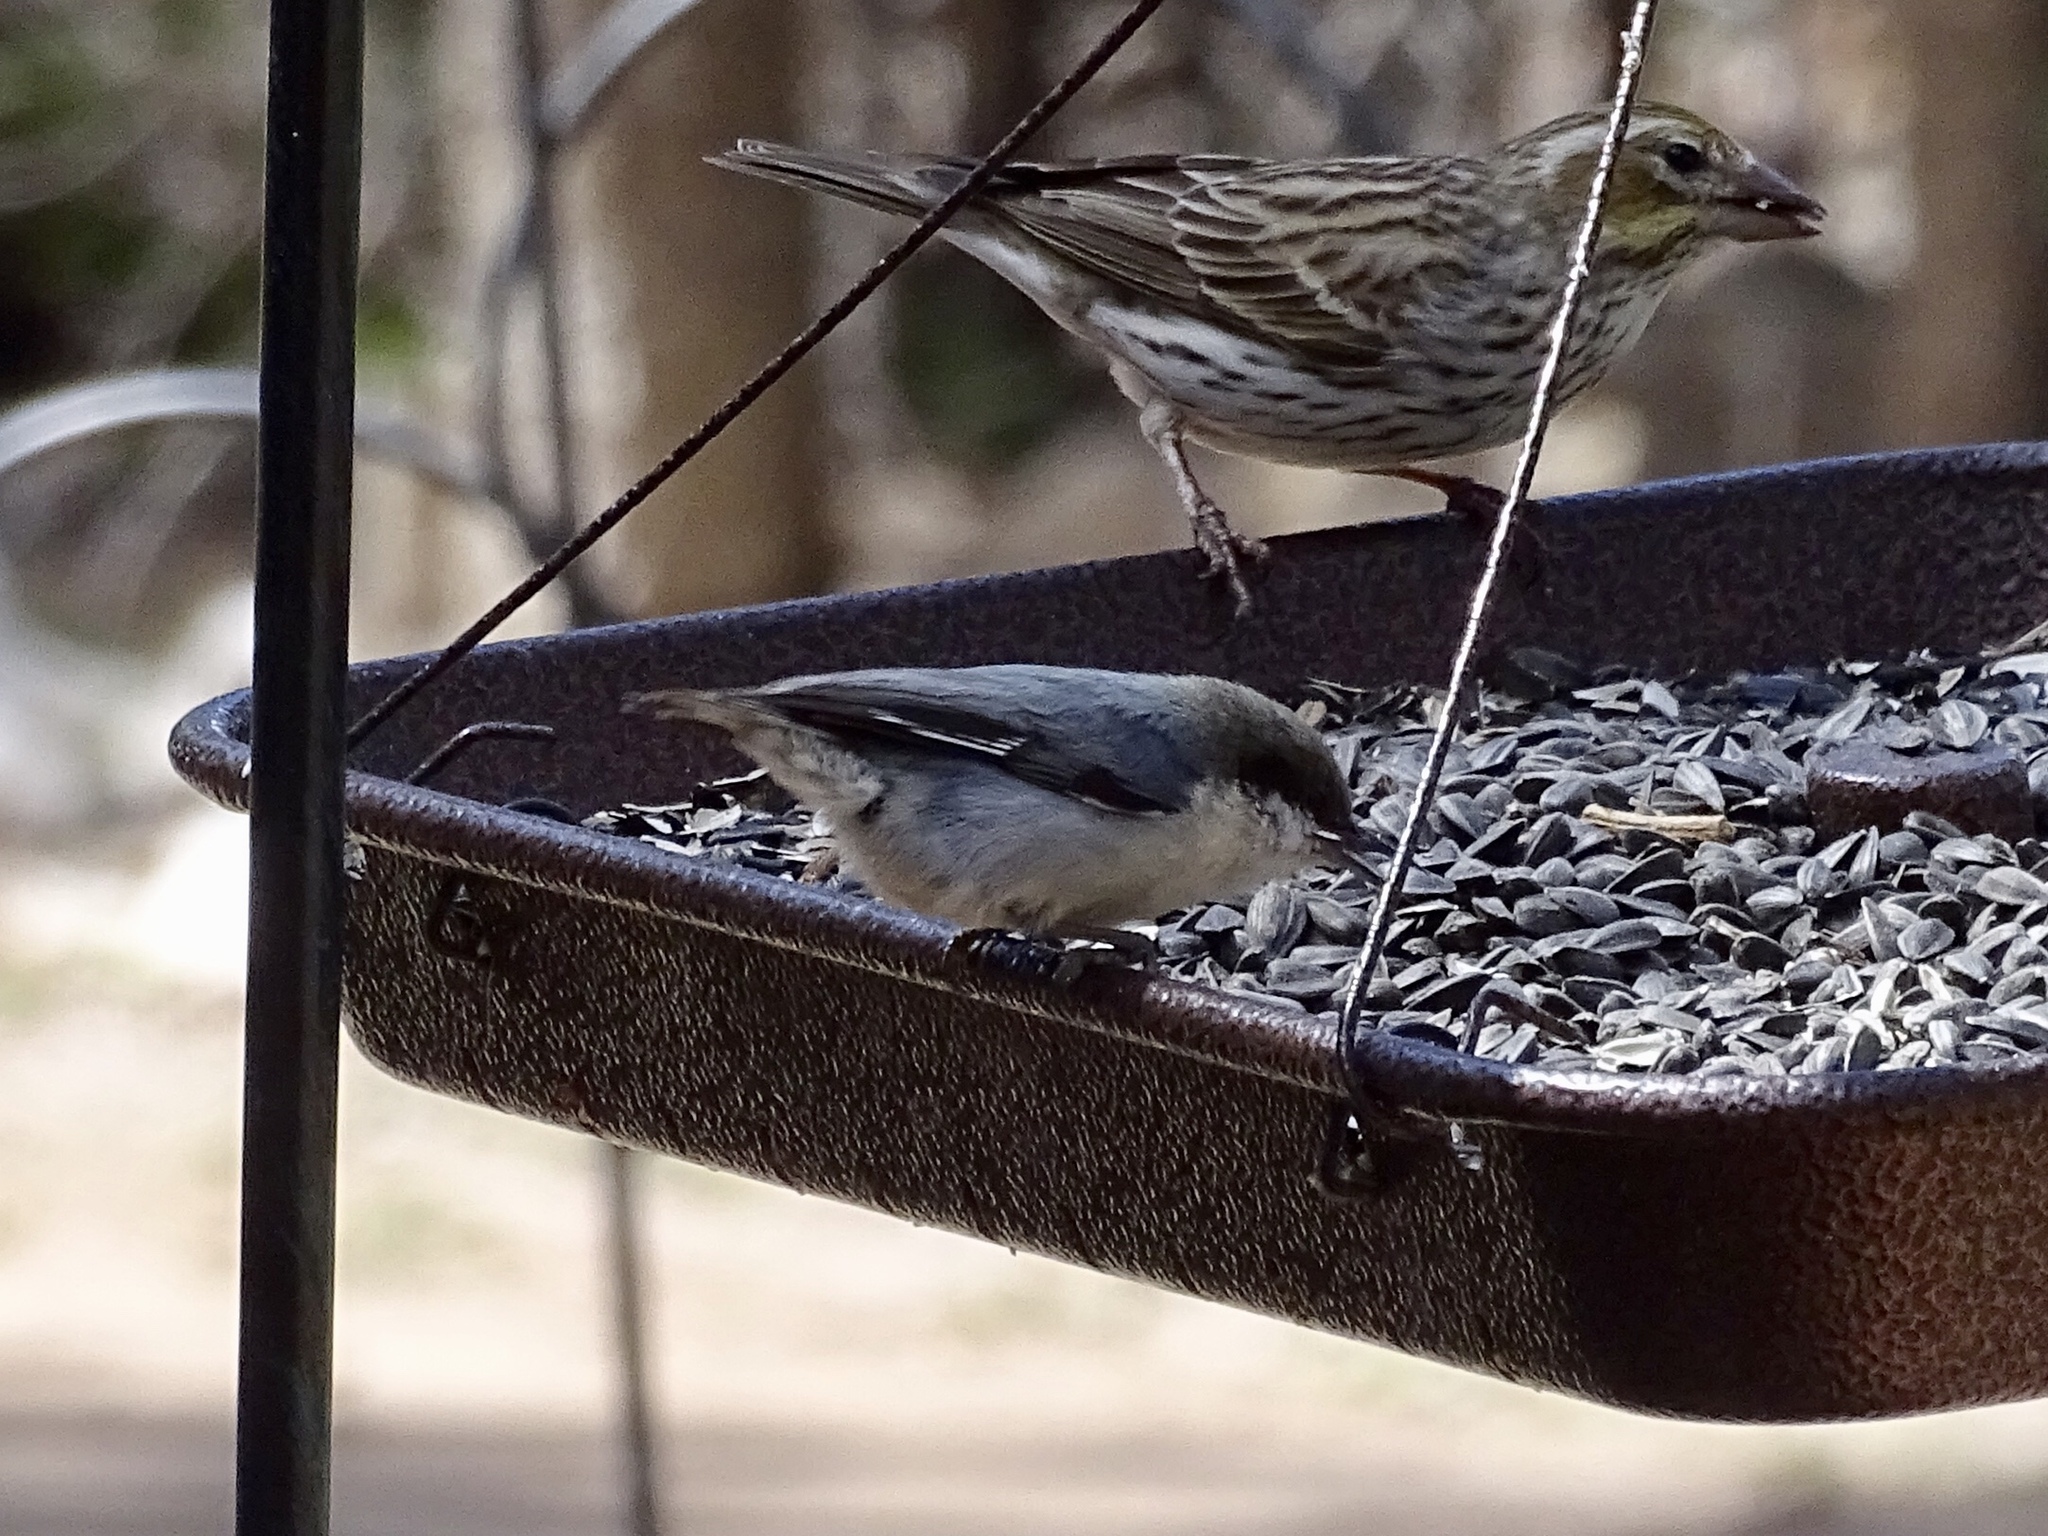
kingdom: Animalia
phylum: Chordata
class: Aves
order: Passeriformes
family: Sittidae
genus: Sitta
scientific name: Sitta pygmaea
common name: Pygmy nuthatch
